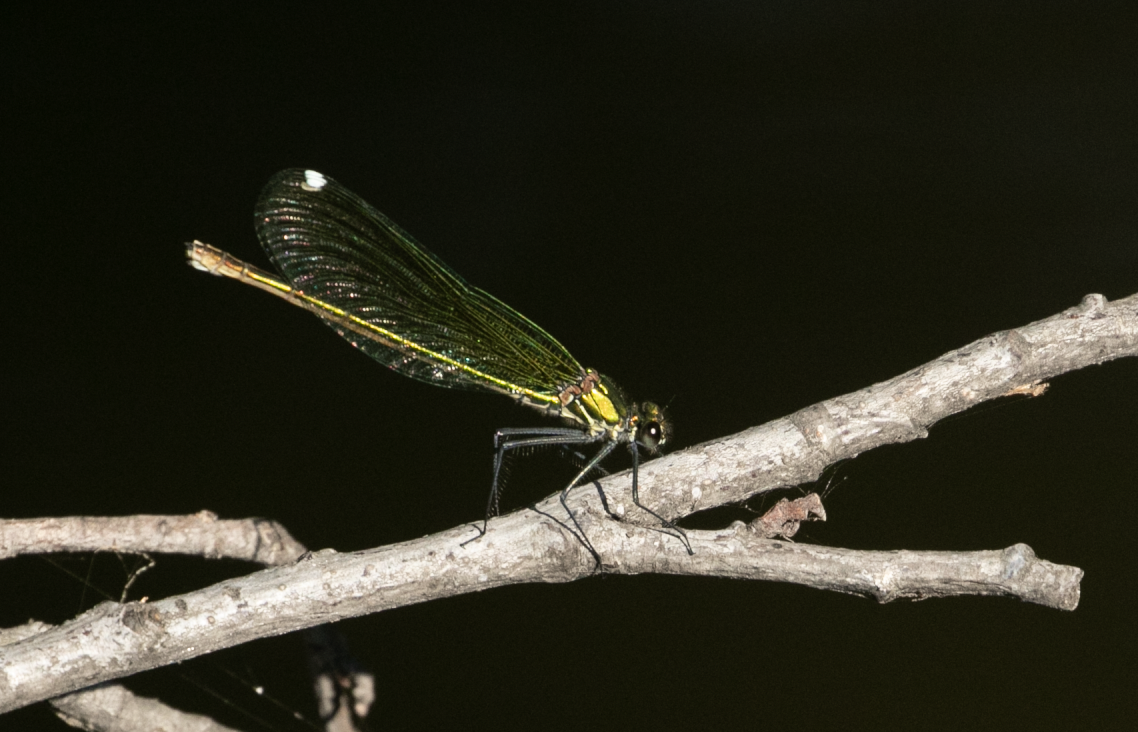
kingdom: Animalia
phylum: Arthropoda
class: Insecta
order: Odonata
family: Calopterygidae
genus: Calopteryx
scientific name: Calopteryx splendens
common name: Banded demoiselle
